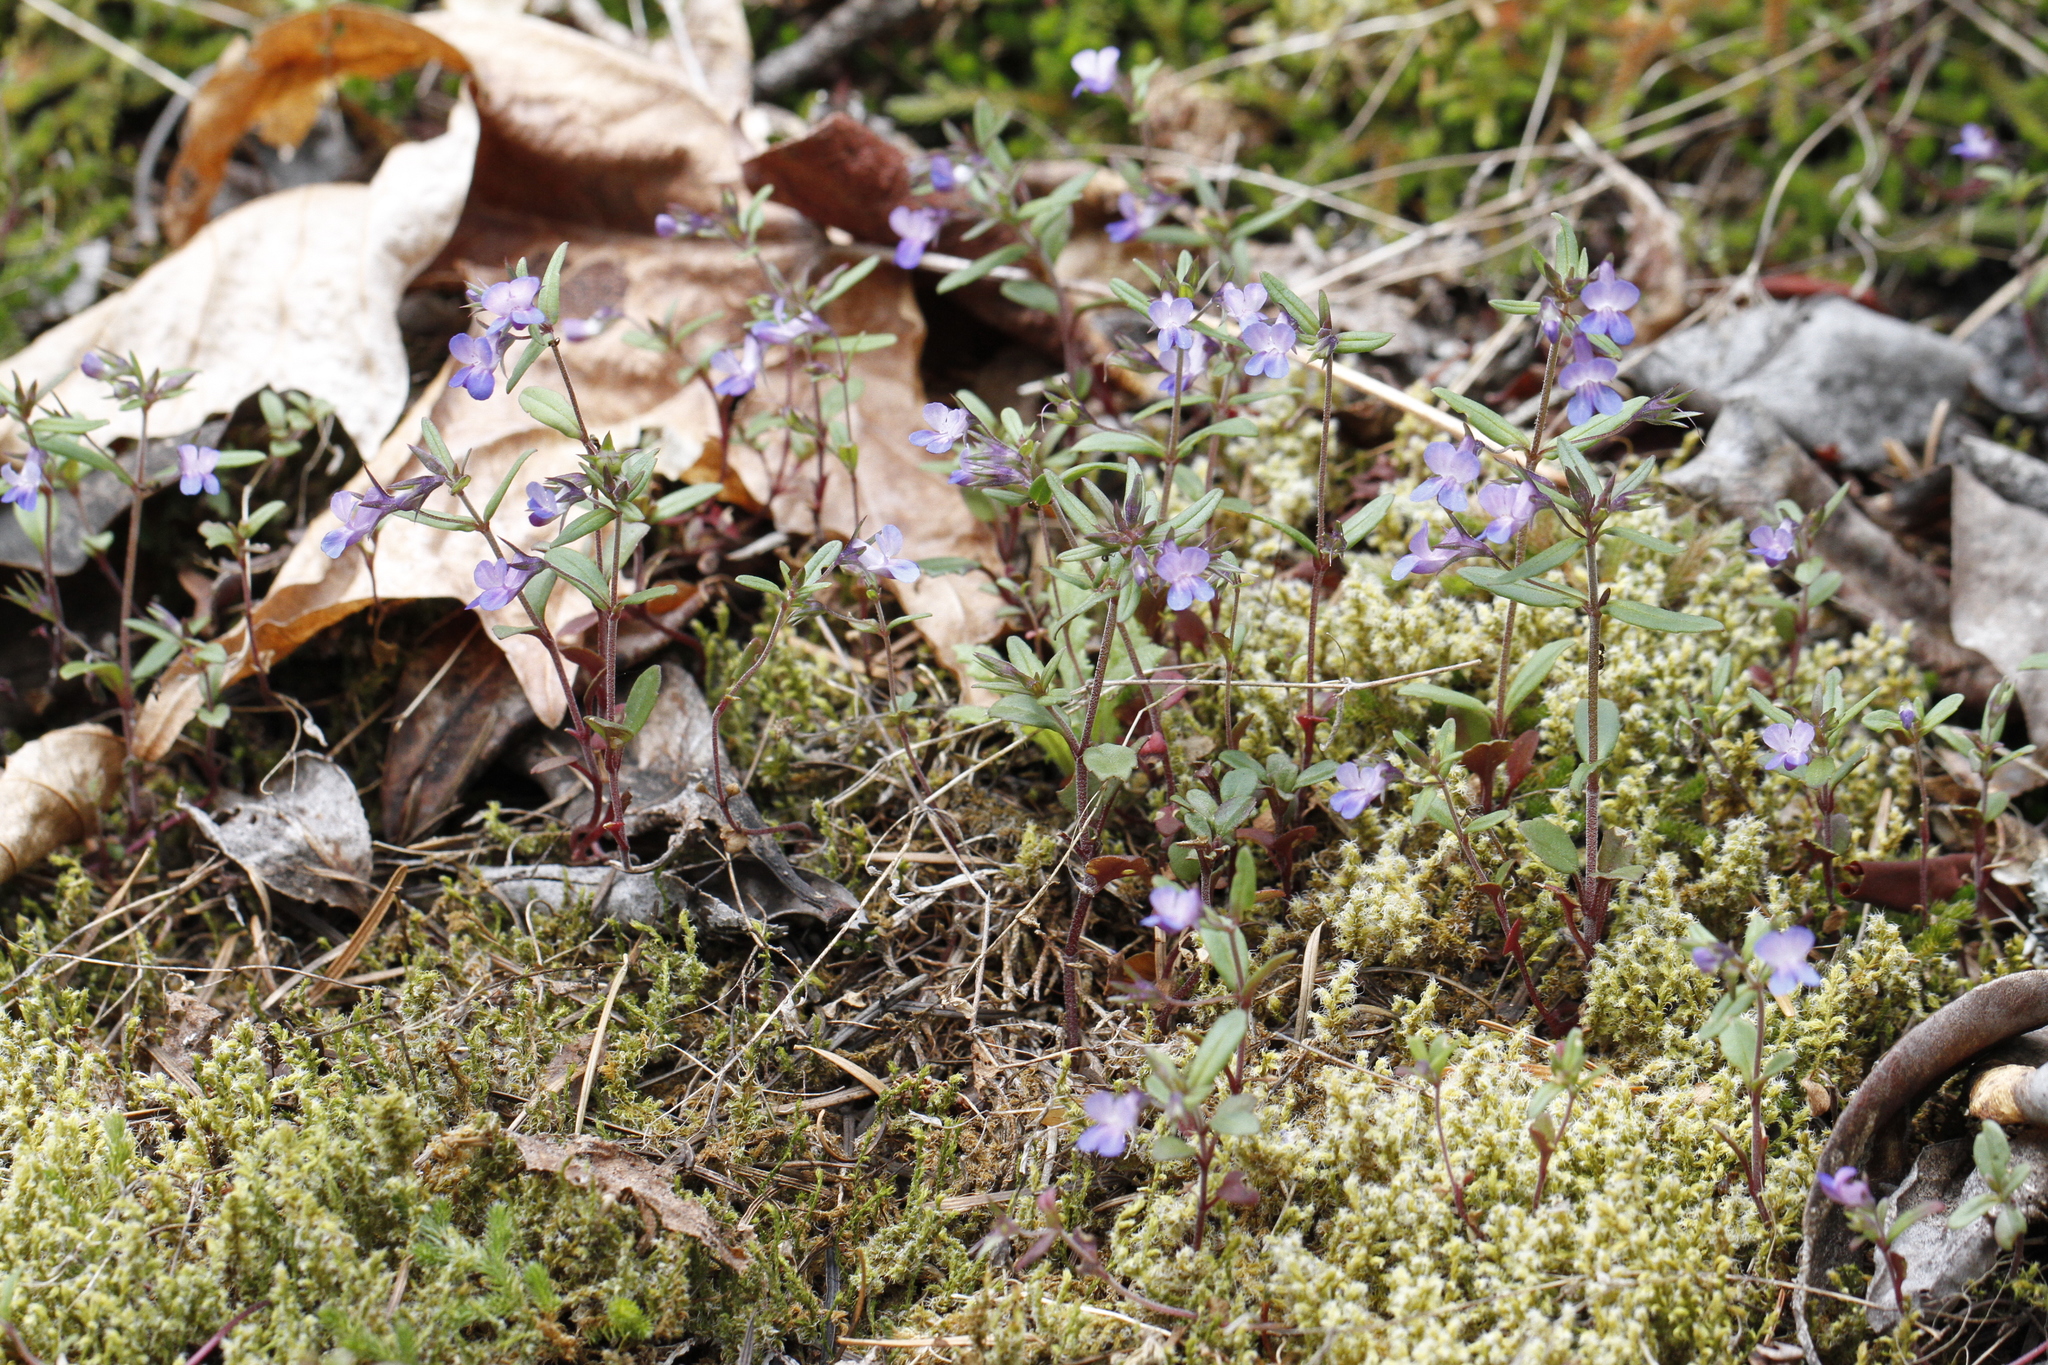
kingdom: Plantae
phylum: Tracheophyta
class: Magnoliopsida
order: Lamiales
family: Plantaginaceae
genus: Collinsia
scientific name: Collinsia parviflora
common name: Blue-lips
